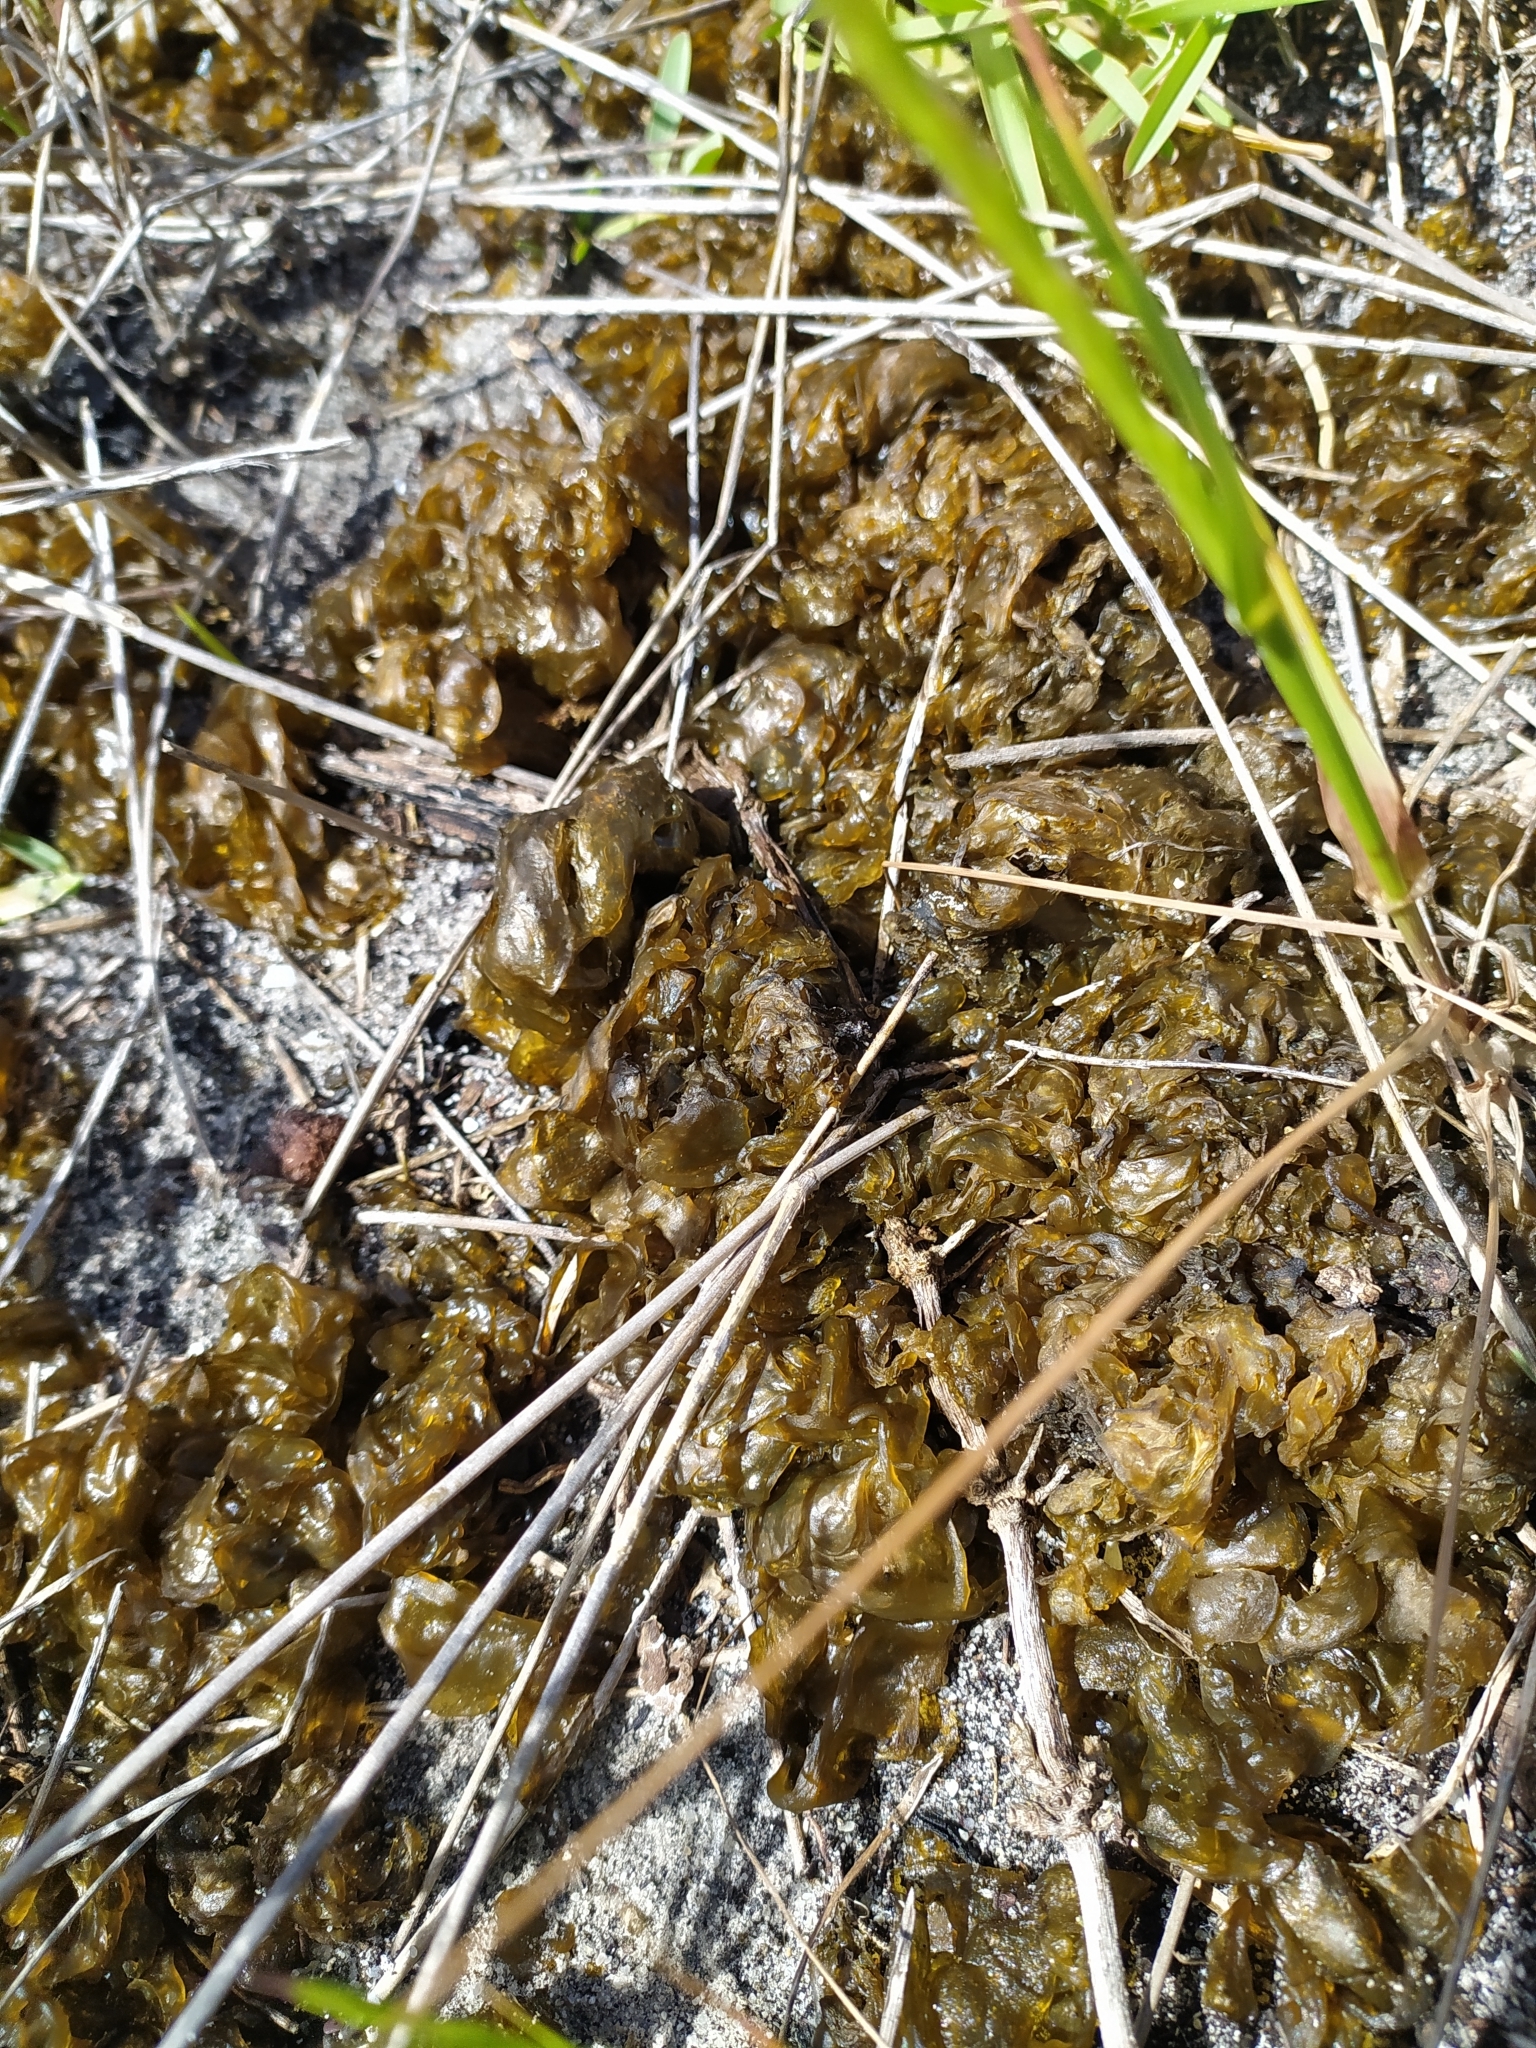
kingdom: Bacteria
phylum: Cyanobacteria
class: Cyanobacteriia
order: Cyanobacteriales
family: Nostocaceae
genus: Nostoc
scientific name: Nostoc commune
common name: Star jelly
